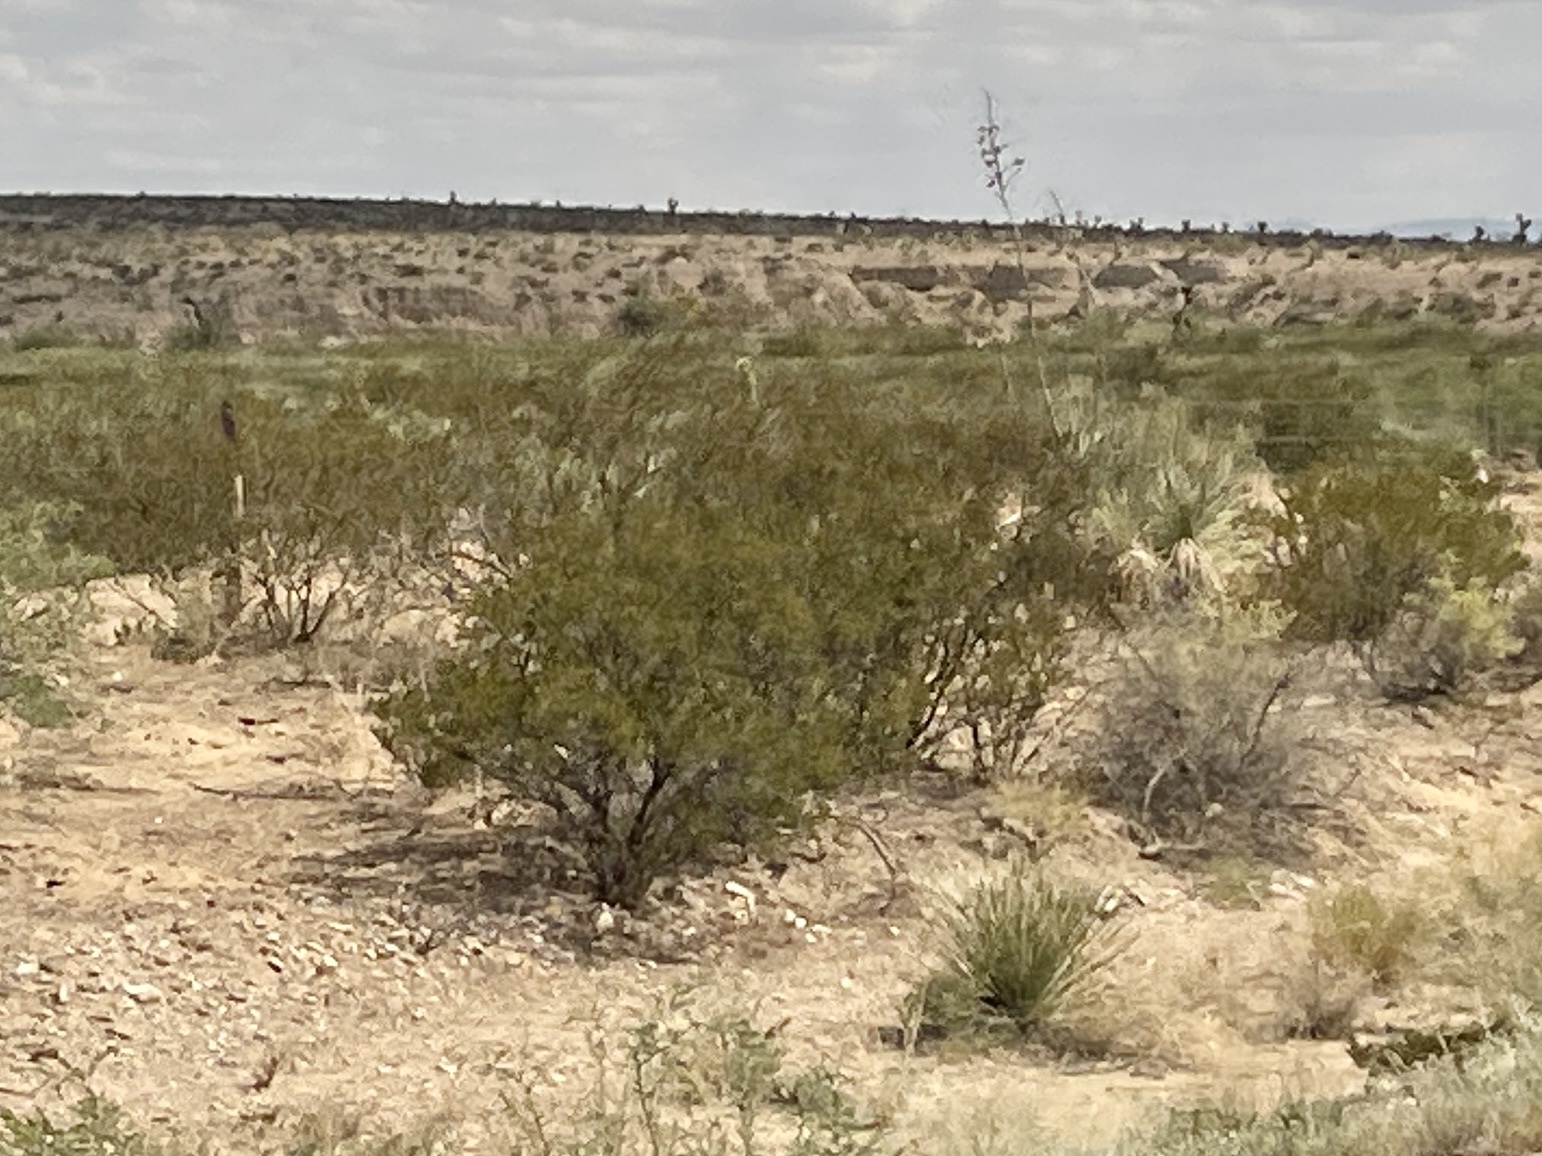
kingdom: Plantae
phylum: Tracheophyta
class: Magnoliopsida
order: Zygophyllales
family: Zygophyllaceae
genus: Larrea
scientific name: Larrea tridentata
